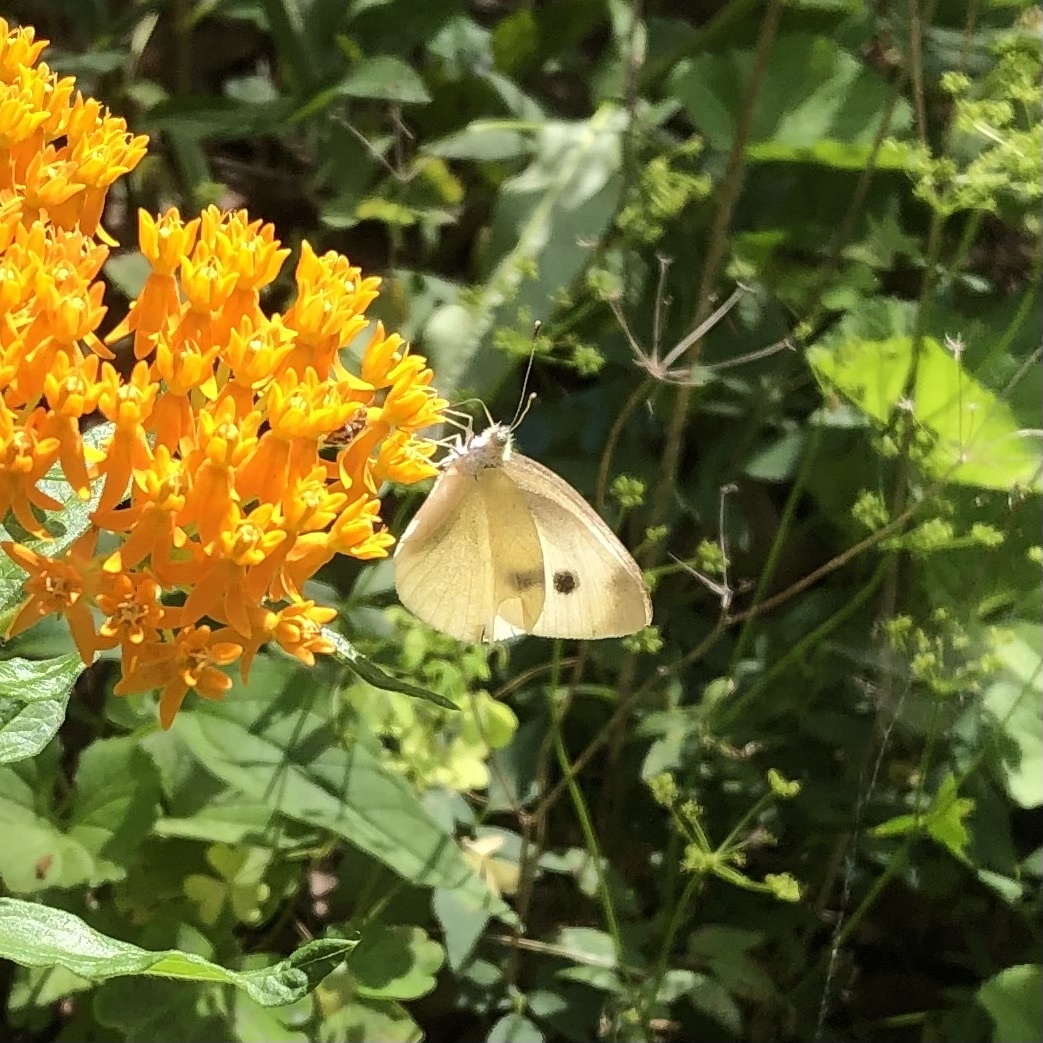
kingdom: Animalia
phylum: Arthropoda
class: Insecta
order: Lepidoptera
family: Pieridae
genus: Pieris
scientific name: Pieris rapae
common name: Small white
